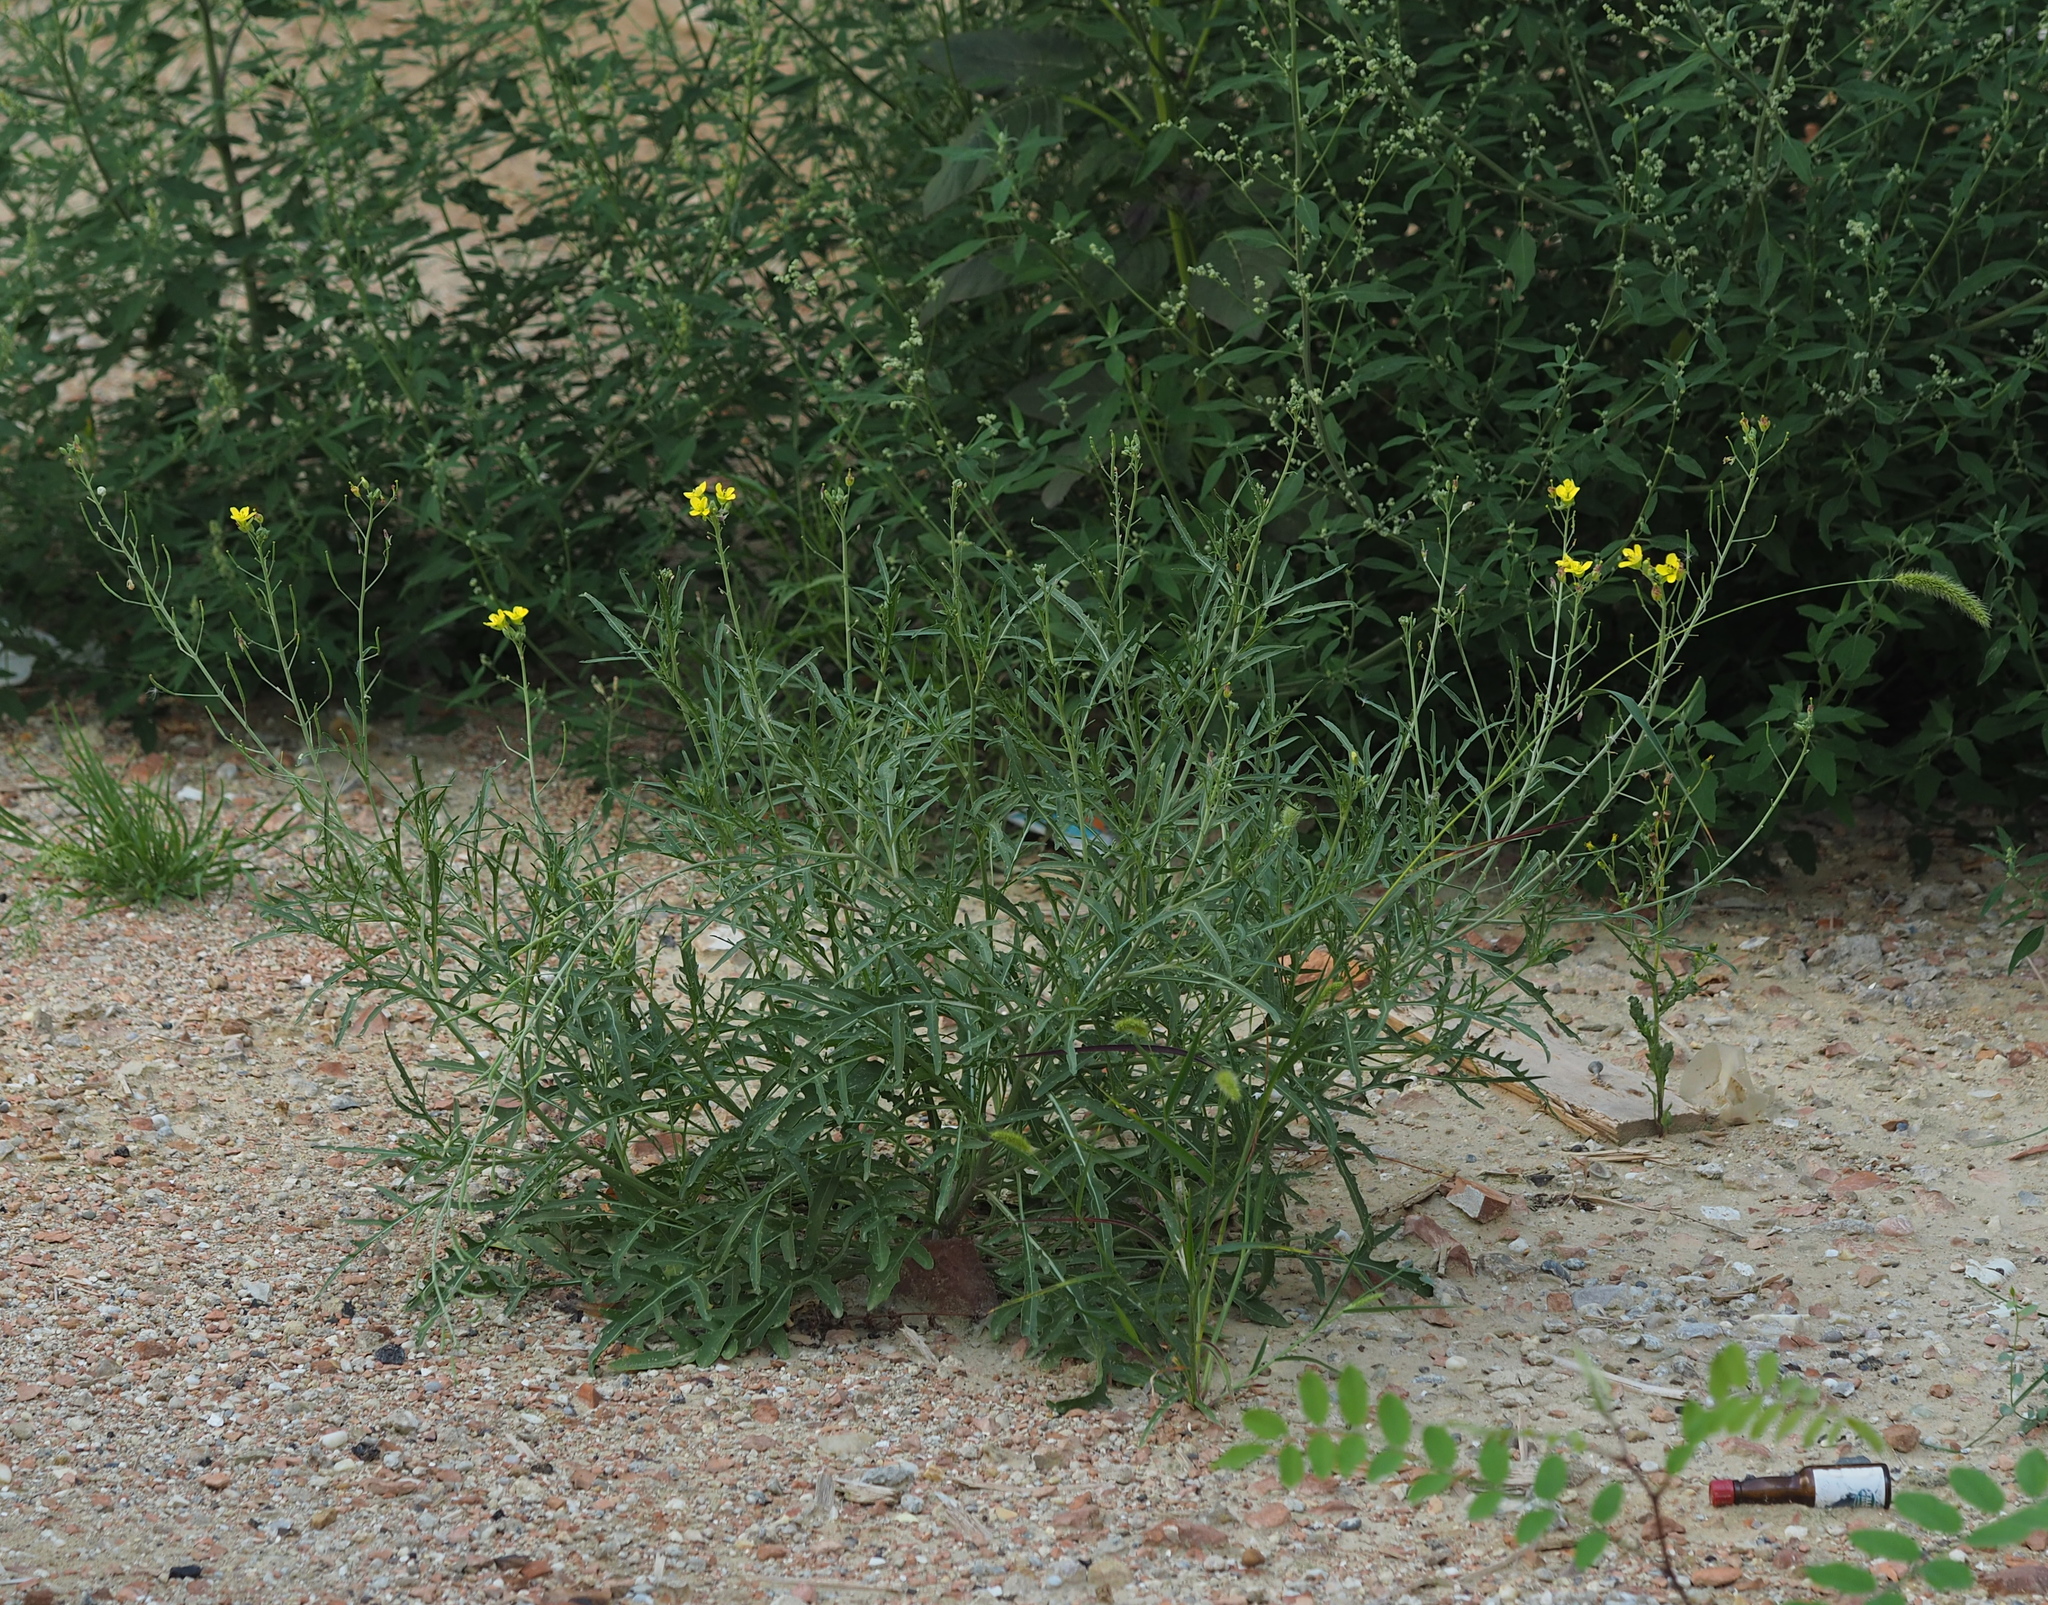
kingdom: Plantae
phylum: Tracheophyta
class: Magnoliopsida
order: Brassicales
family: Brassicaceae
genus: Diplotaxis
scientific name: Diplotaxis tenuifolia
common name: Perennial wall-rocket
